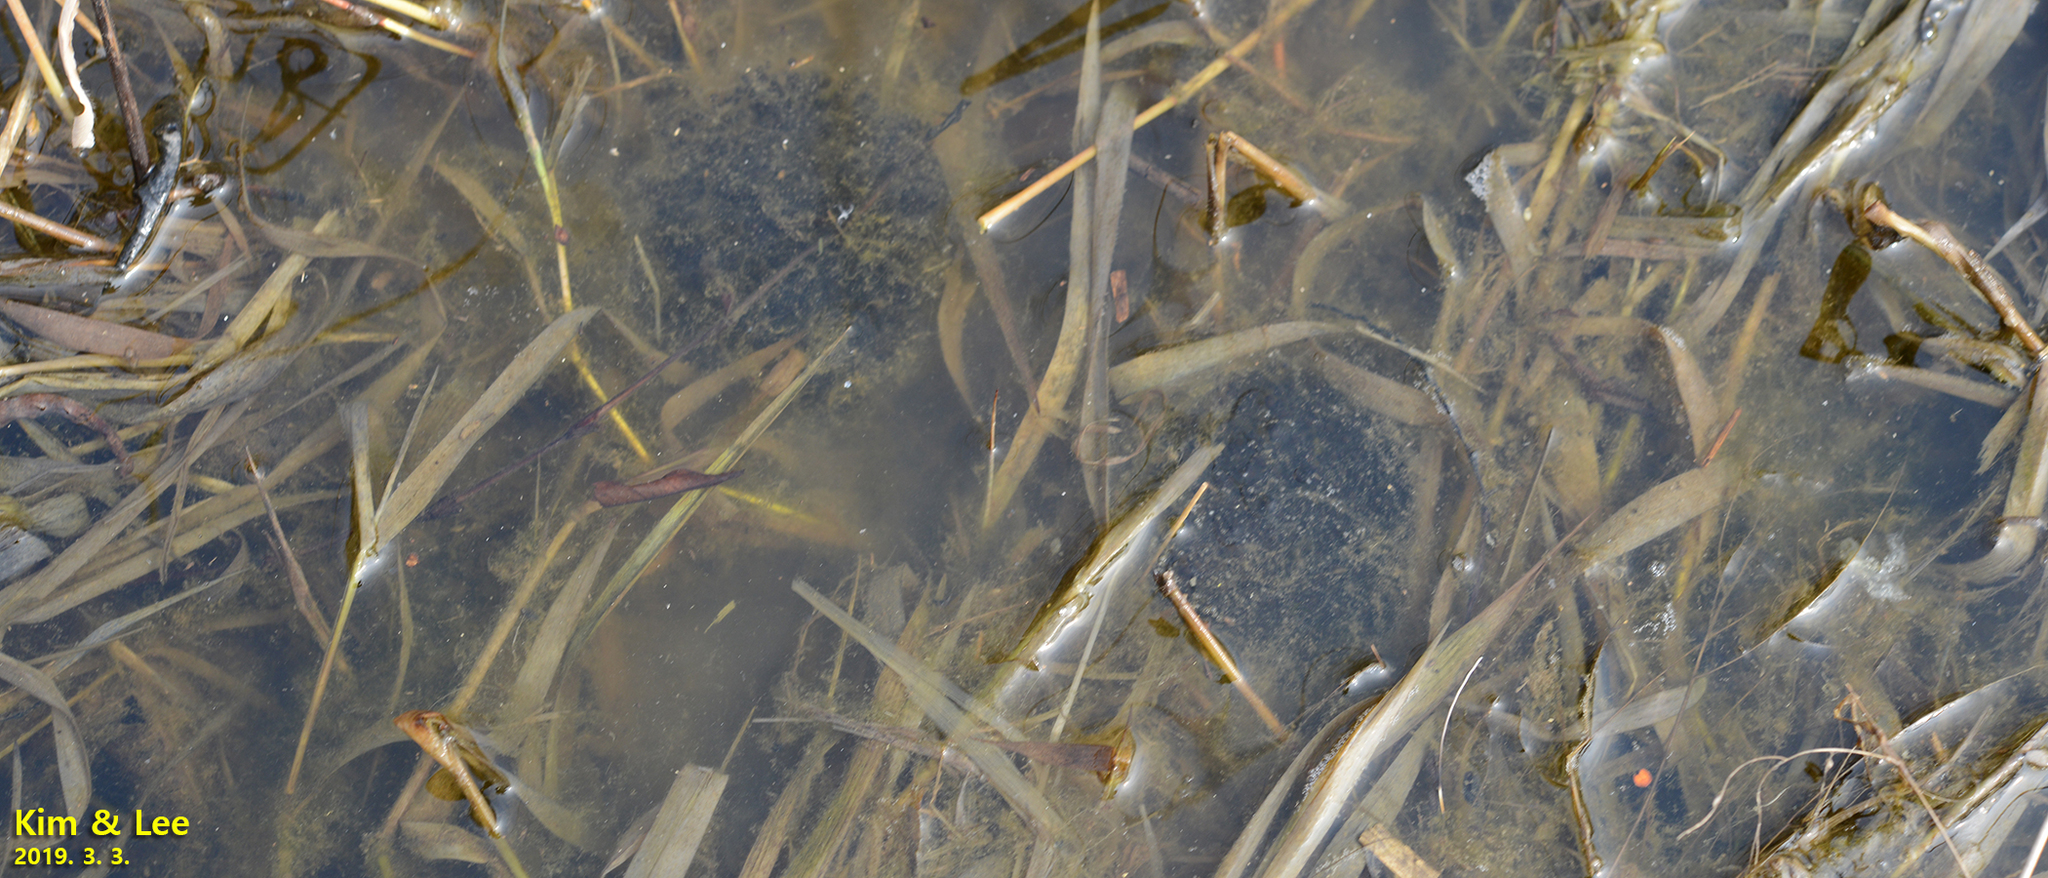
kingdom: Animalia
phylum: Chordata
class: Amphibia
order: Anura
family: Ranidae
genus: Rana
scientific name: Rana coreana
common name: Korean brown frog
